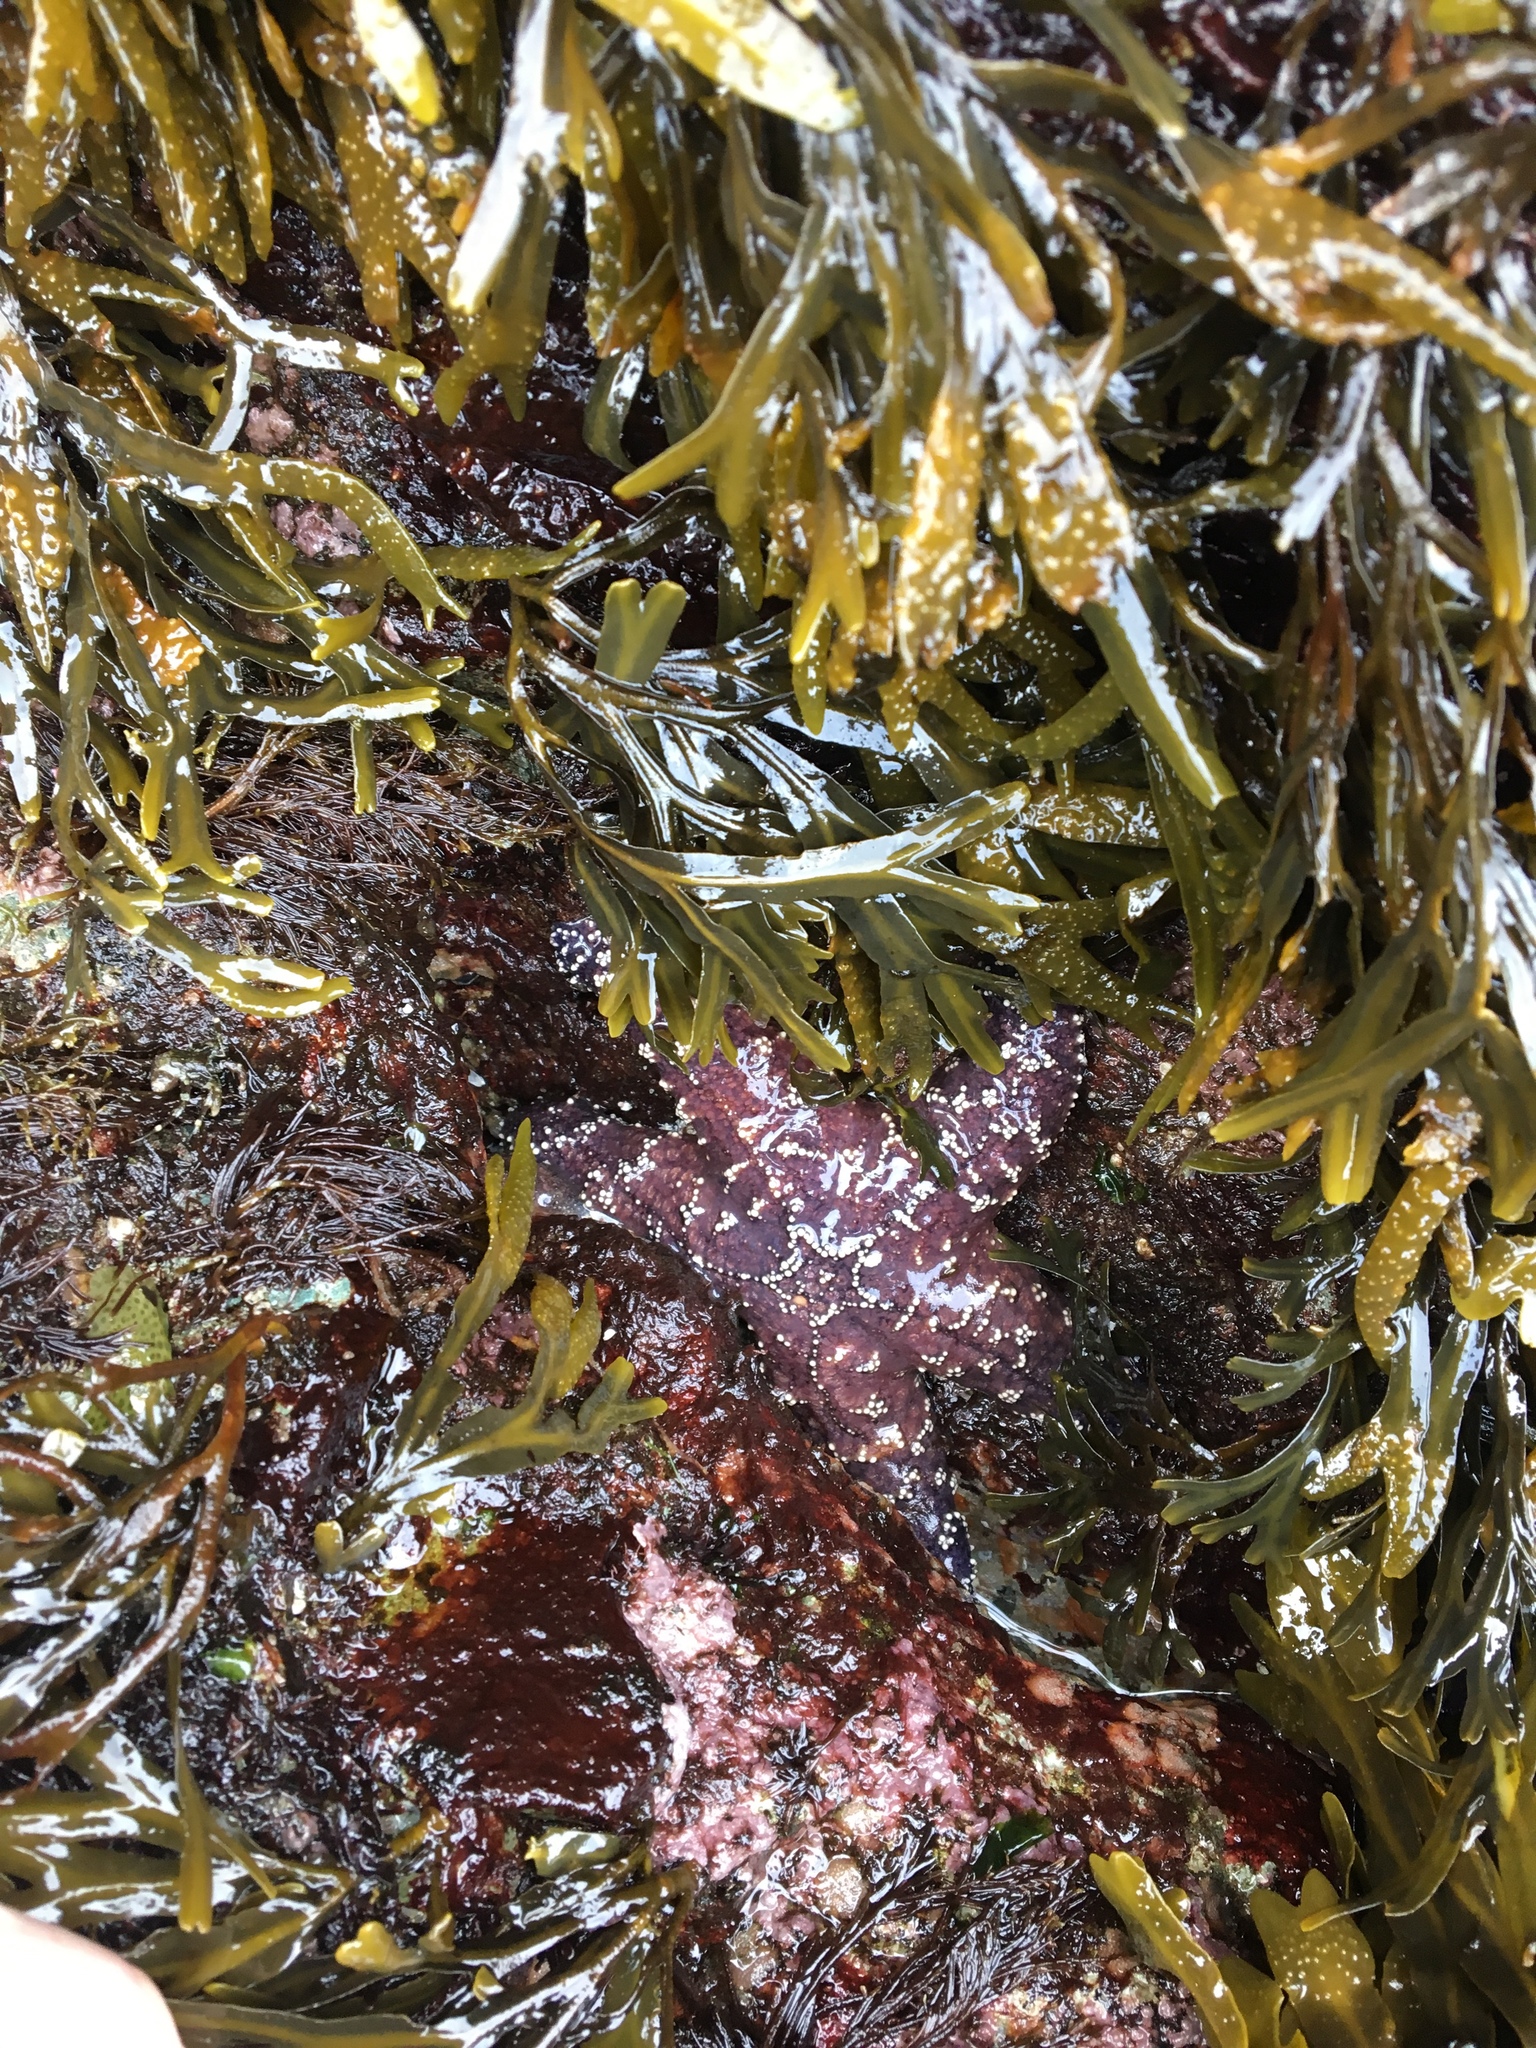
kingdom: Animalia
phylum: Echinodermata
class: Asteroidea
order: Forcipulatida
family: Asteriidae
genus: Pisaster
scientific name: Pisaster ochraceus
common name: Ochre stars
